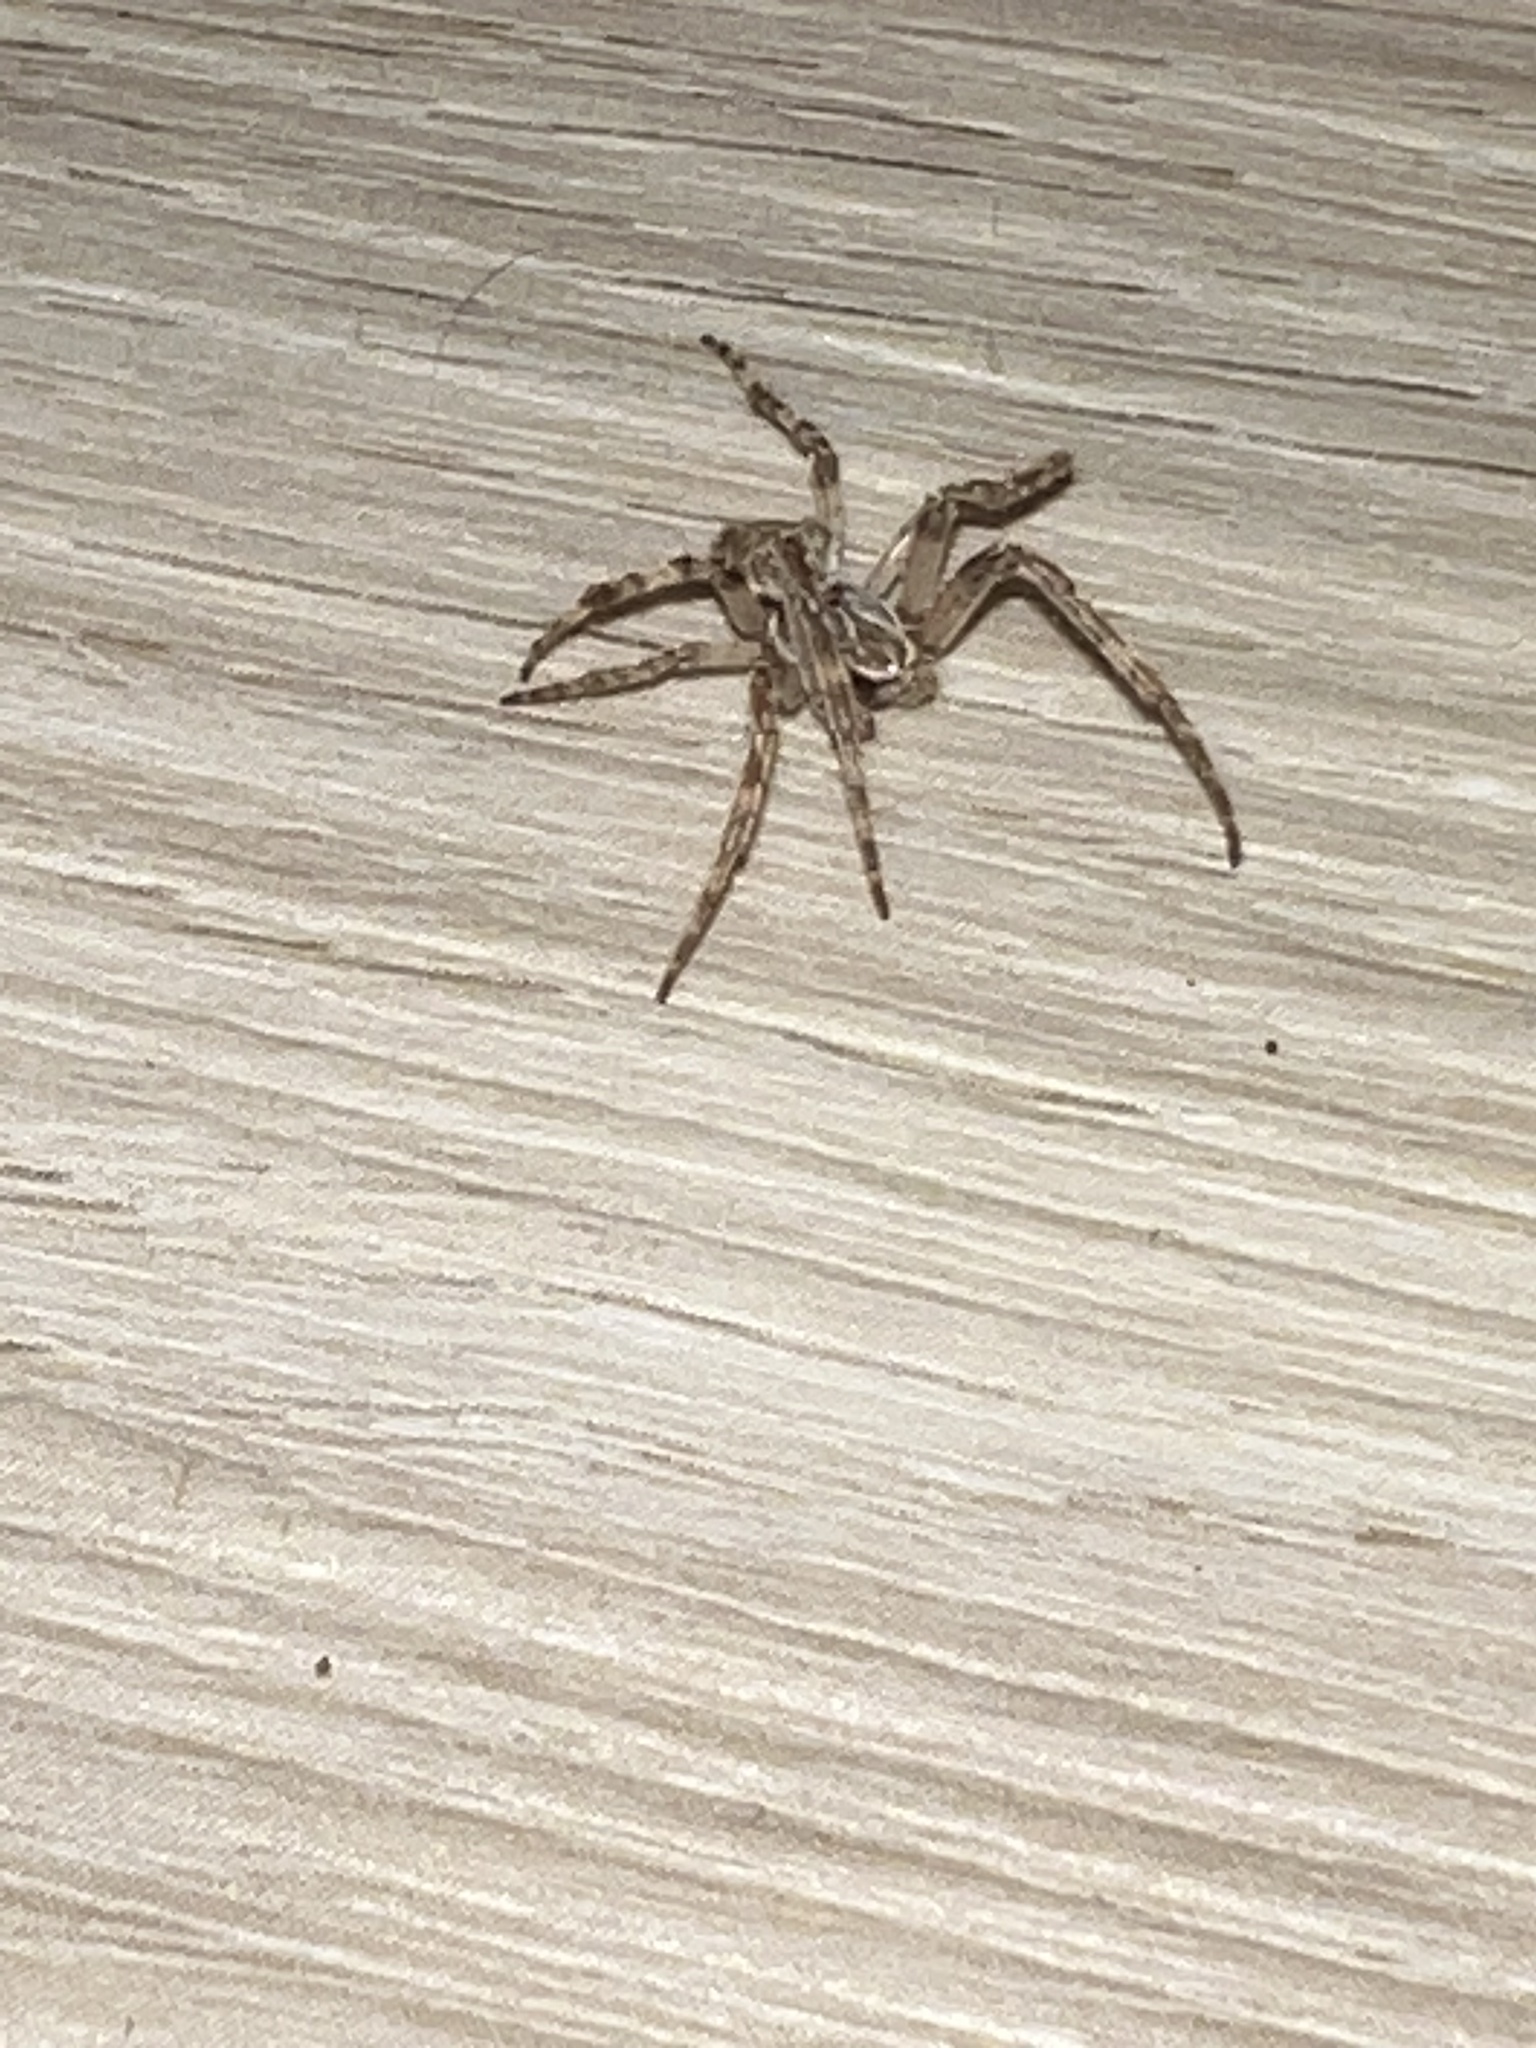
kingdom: Animalia
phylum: Arthropoda
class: Arachnida
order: Araneae
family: Araneidae
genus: Larinioides
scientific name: Larinioides sclopetarius
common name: Bridge orbweaver
